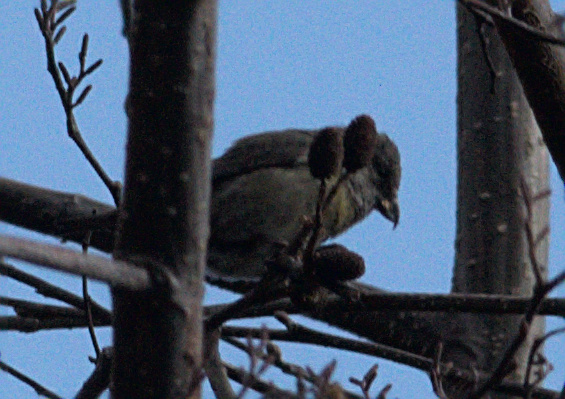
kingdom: Animalia
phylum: Chordata
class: Aves
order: Passeriformes
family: Fringillidae
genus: Loxia
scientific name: Loxia curvirostra
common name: Red crossbill
